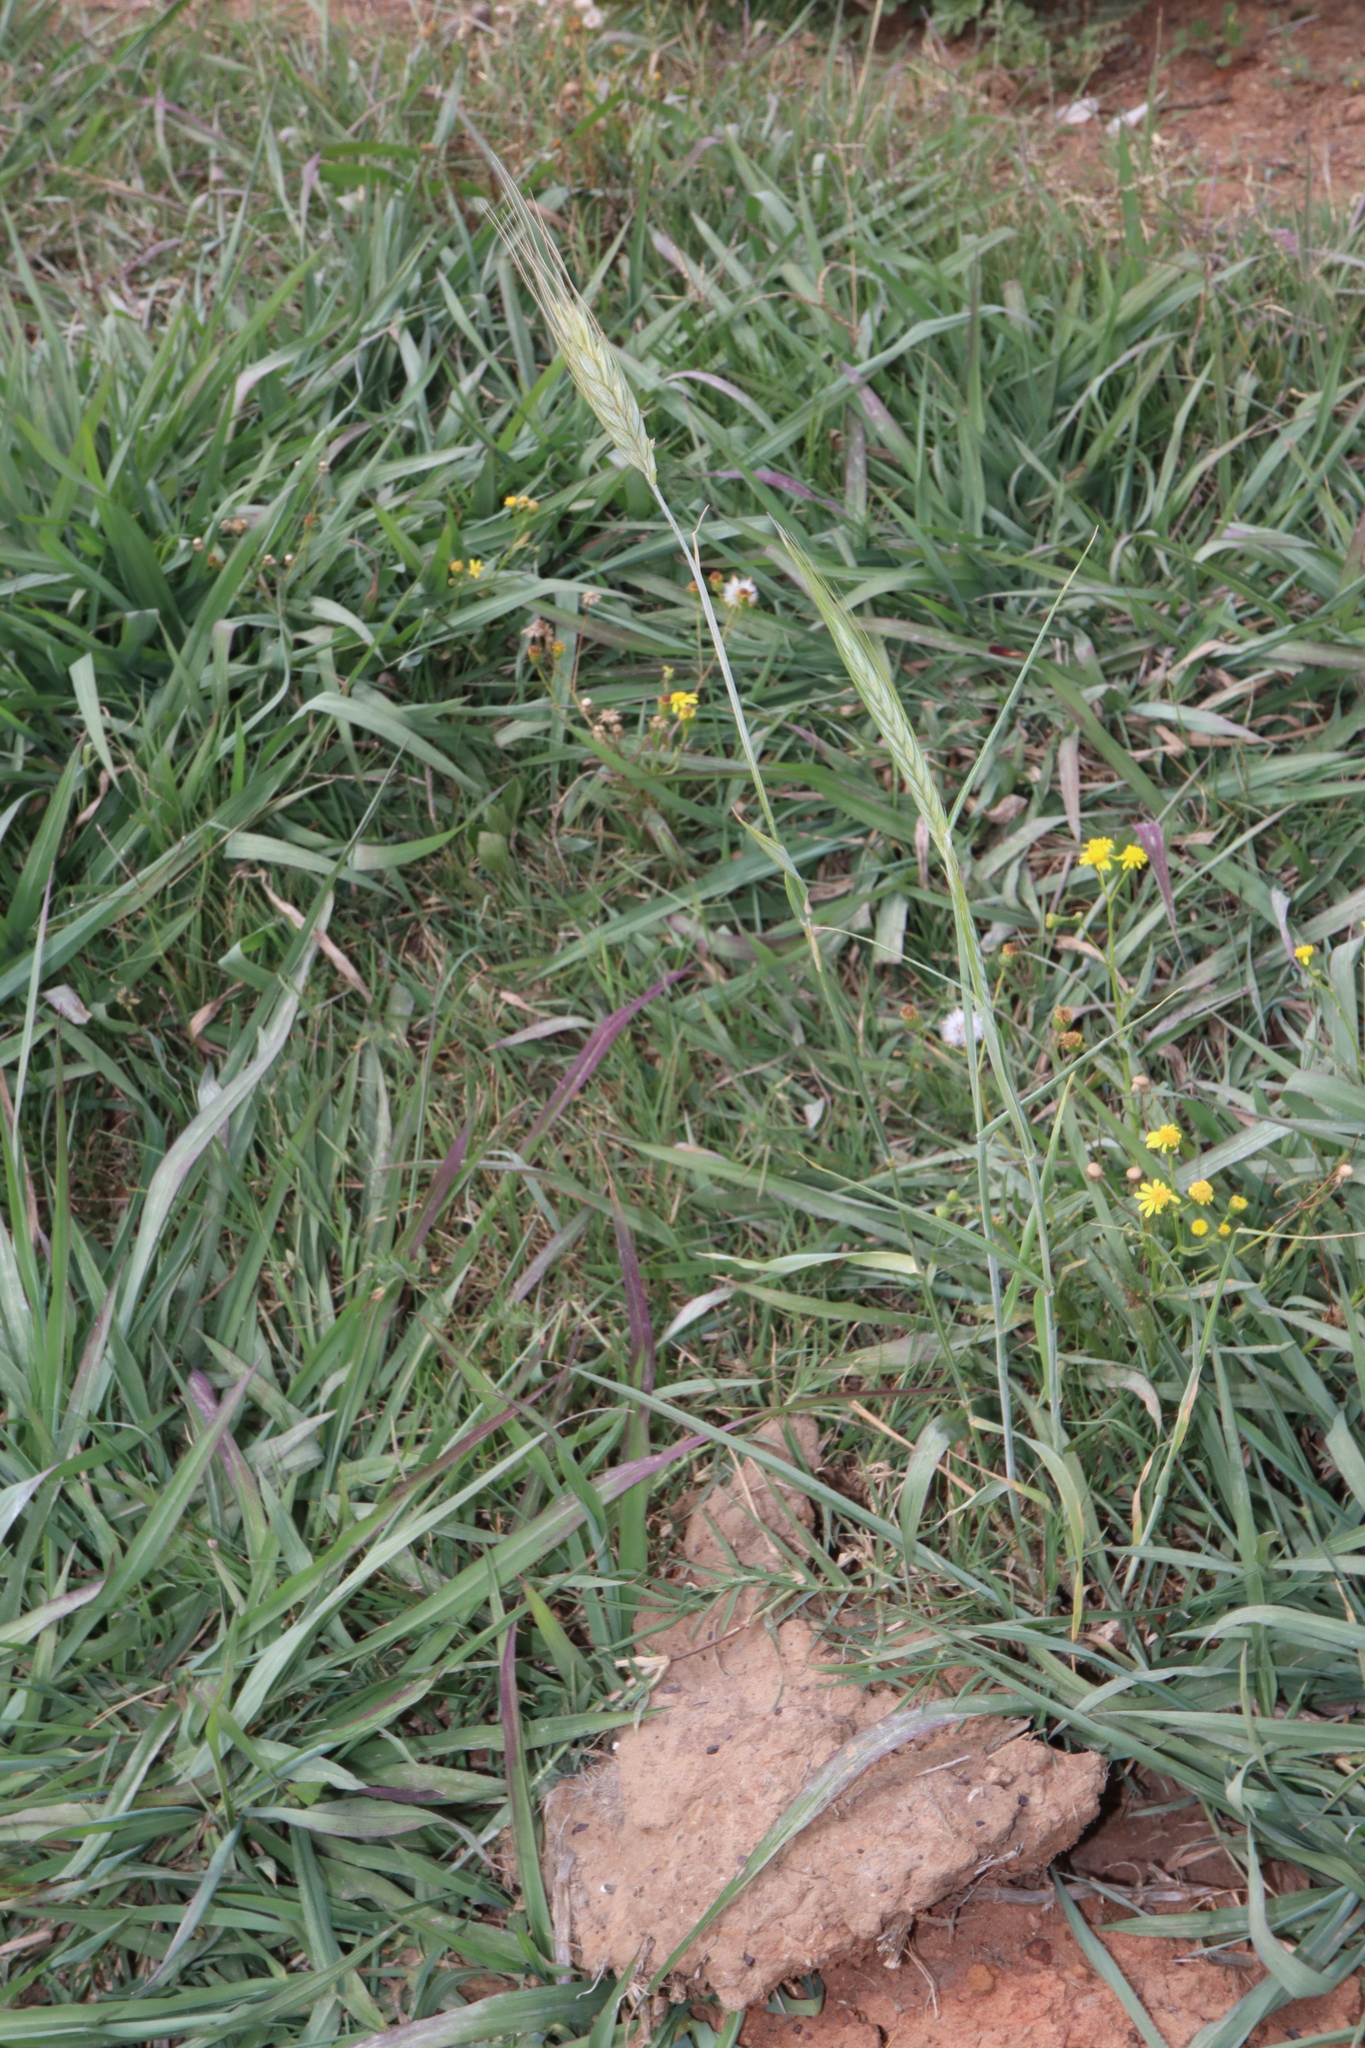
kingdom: Plantae
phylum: Tracheophyta
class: Liliopsida
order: Poales
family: Poaceae
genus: Hordeum
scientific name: Hordeum murinum
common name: Wall barley
